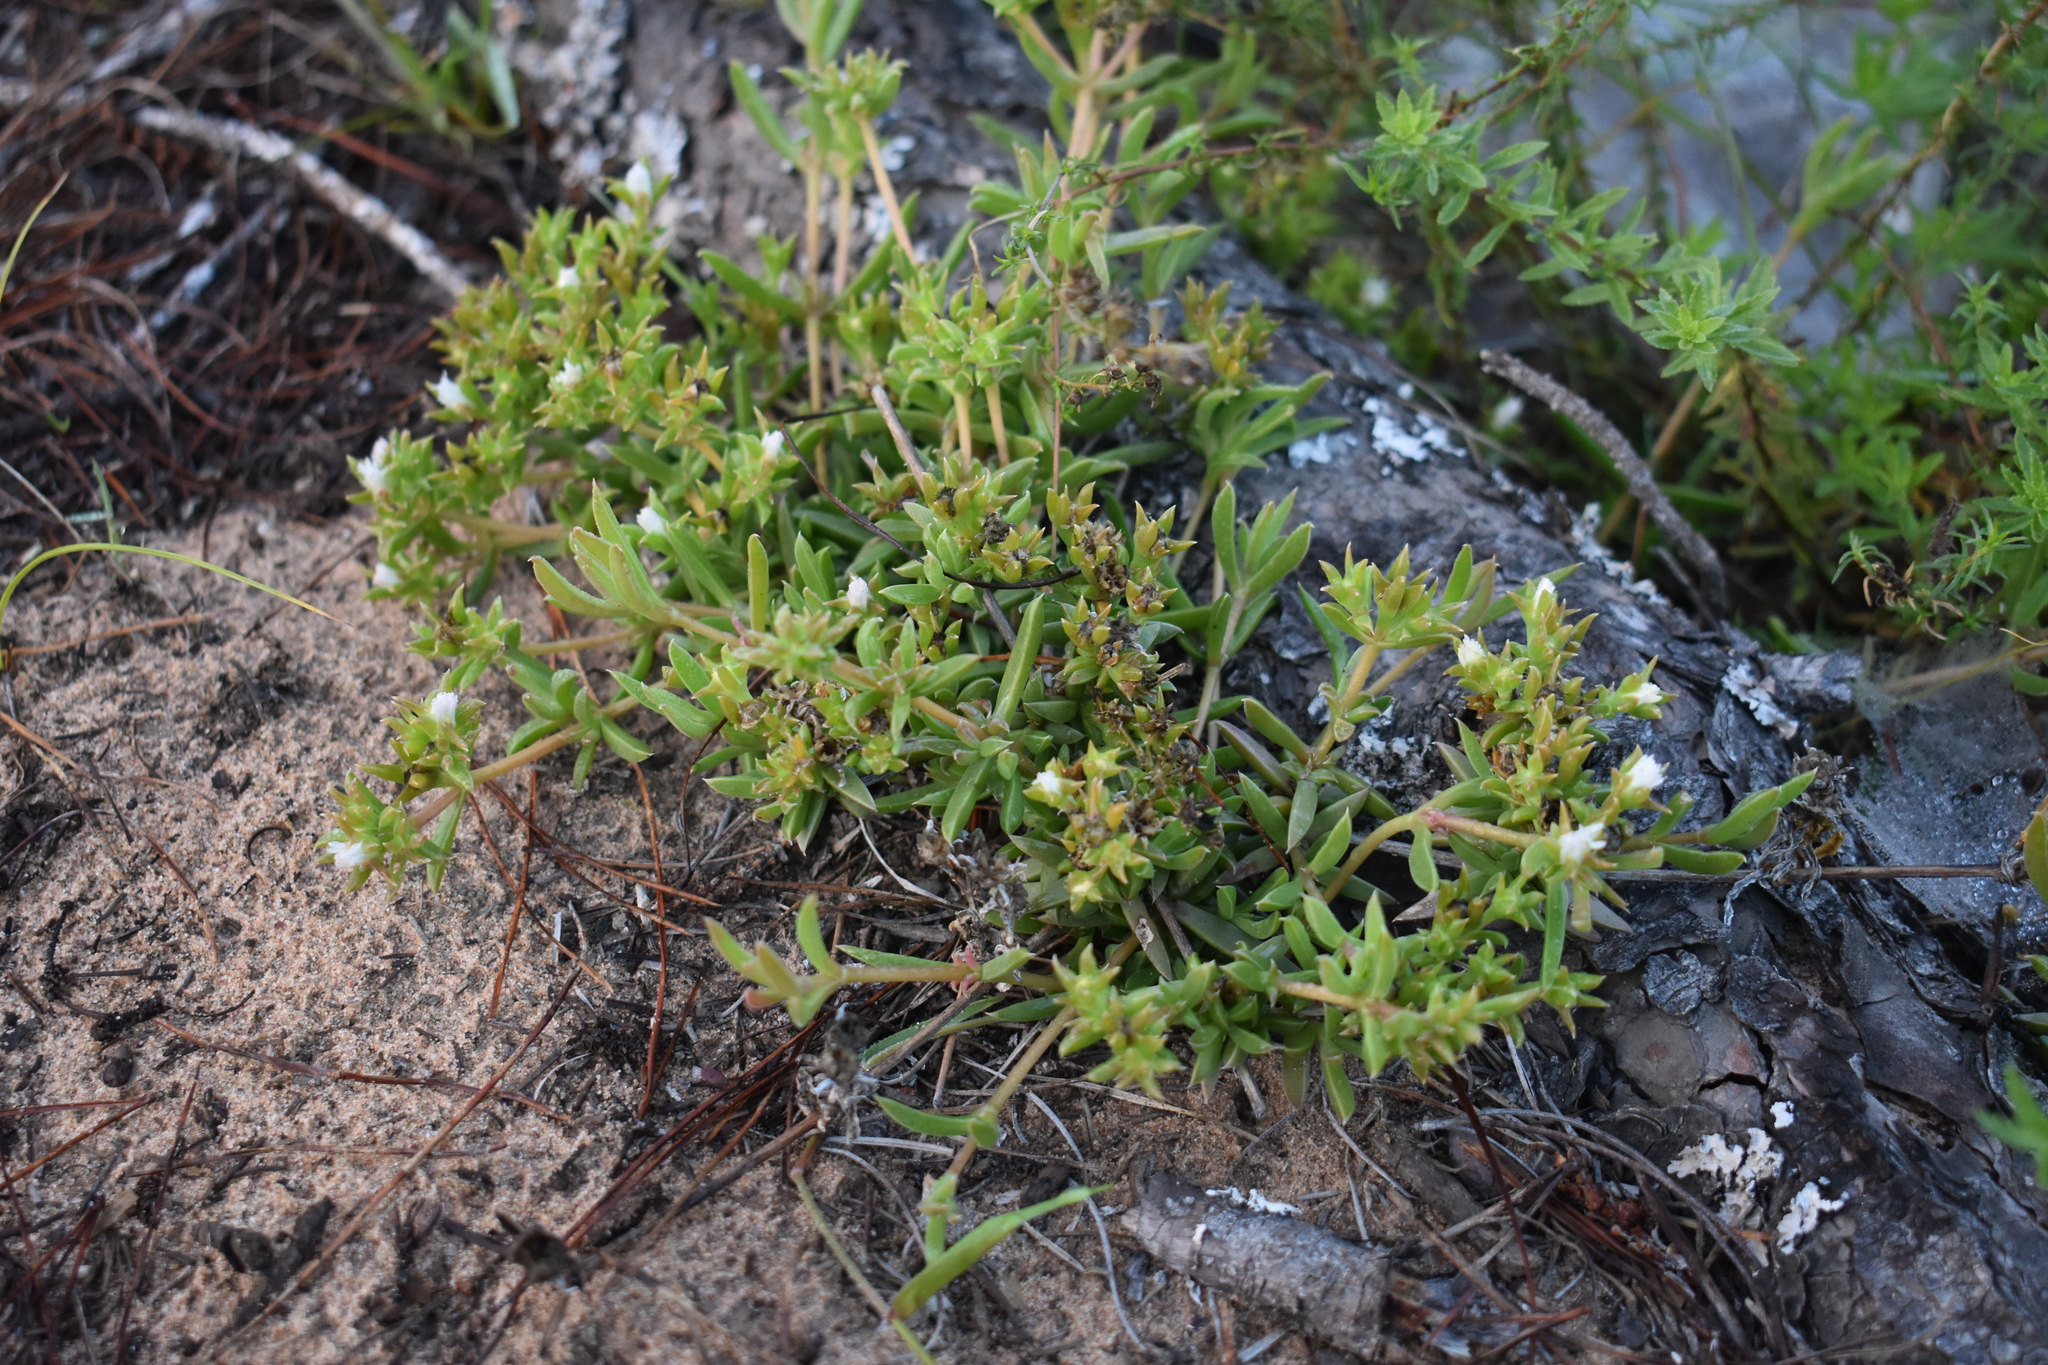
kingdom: Plantae
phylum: Tracheophyta
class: Magnoliopsida
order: Caryophyllales
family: Aizoaceae
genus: Delosperma
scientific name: Delosperma inconspicuum
